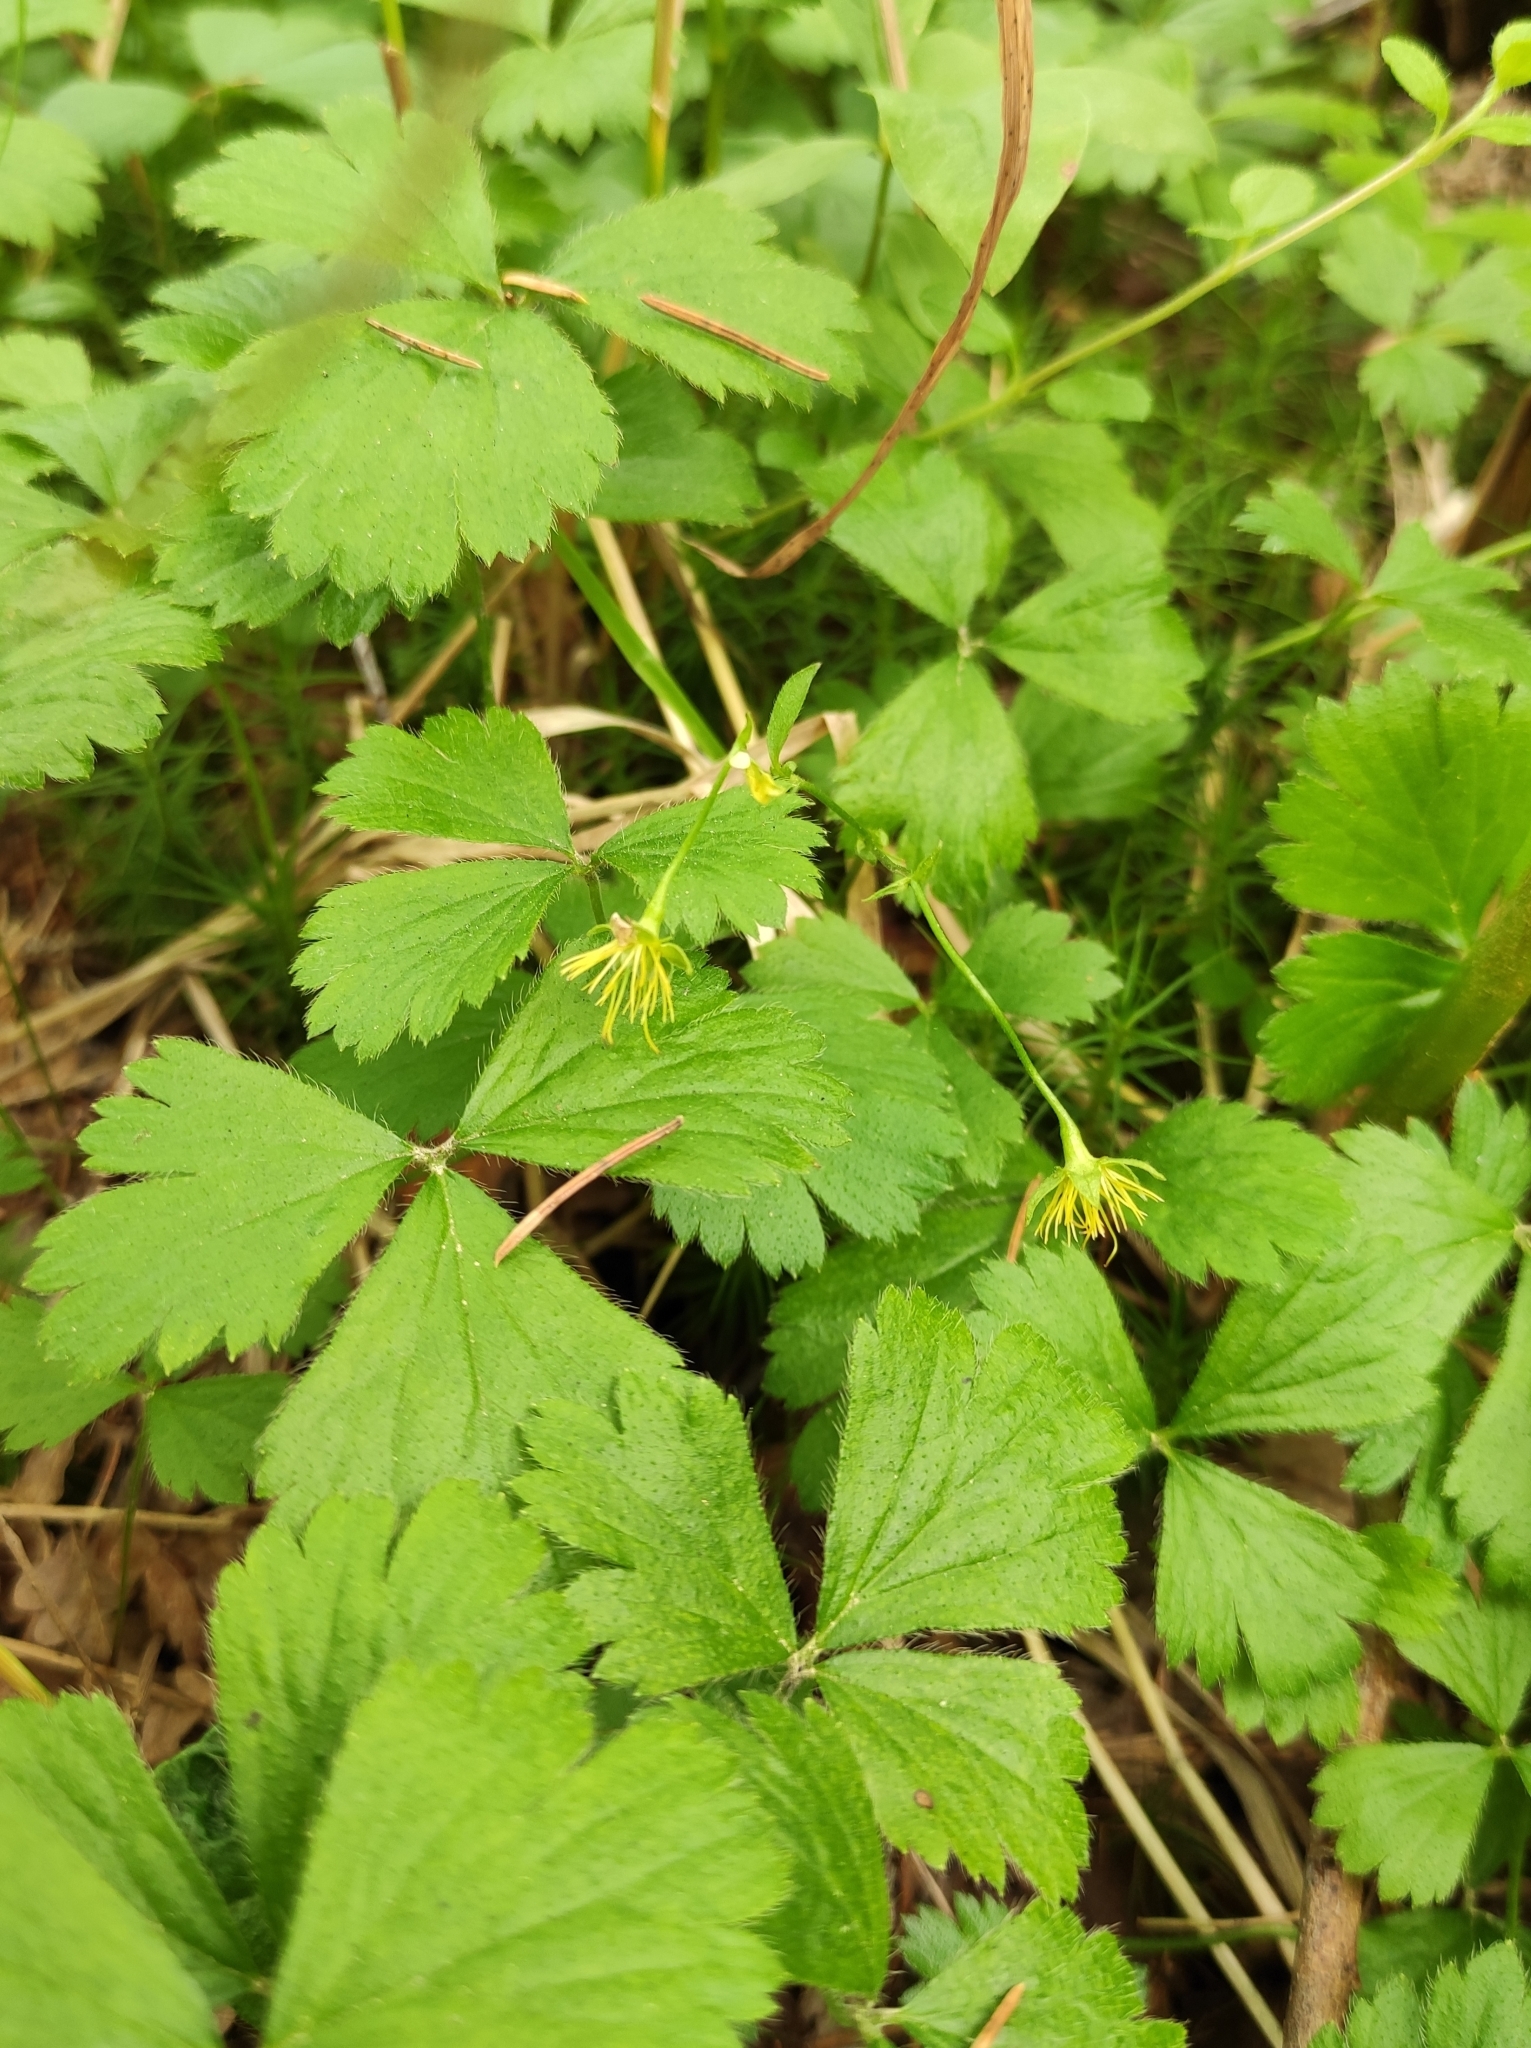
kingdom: Plantae
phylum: Tracheophyta
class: Magnoliopsida
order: Rosales
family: Rosaceae
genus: Geum
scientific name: Geum ternatum
